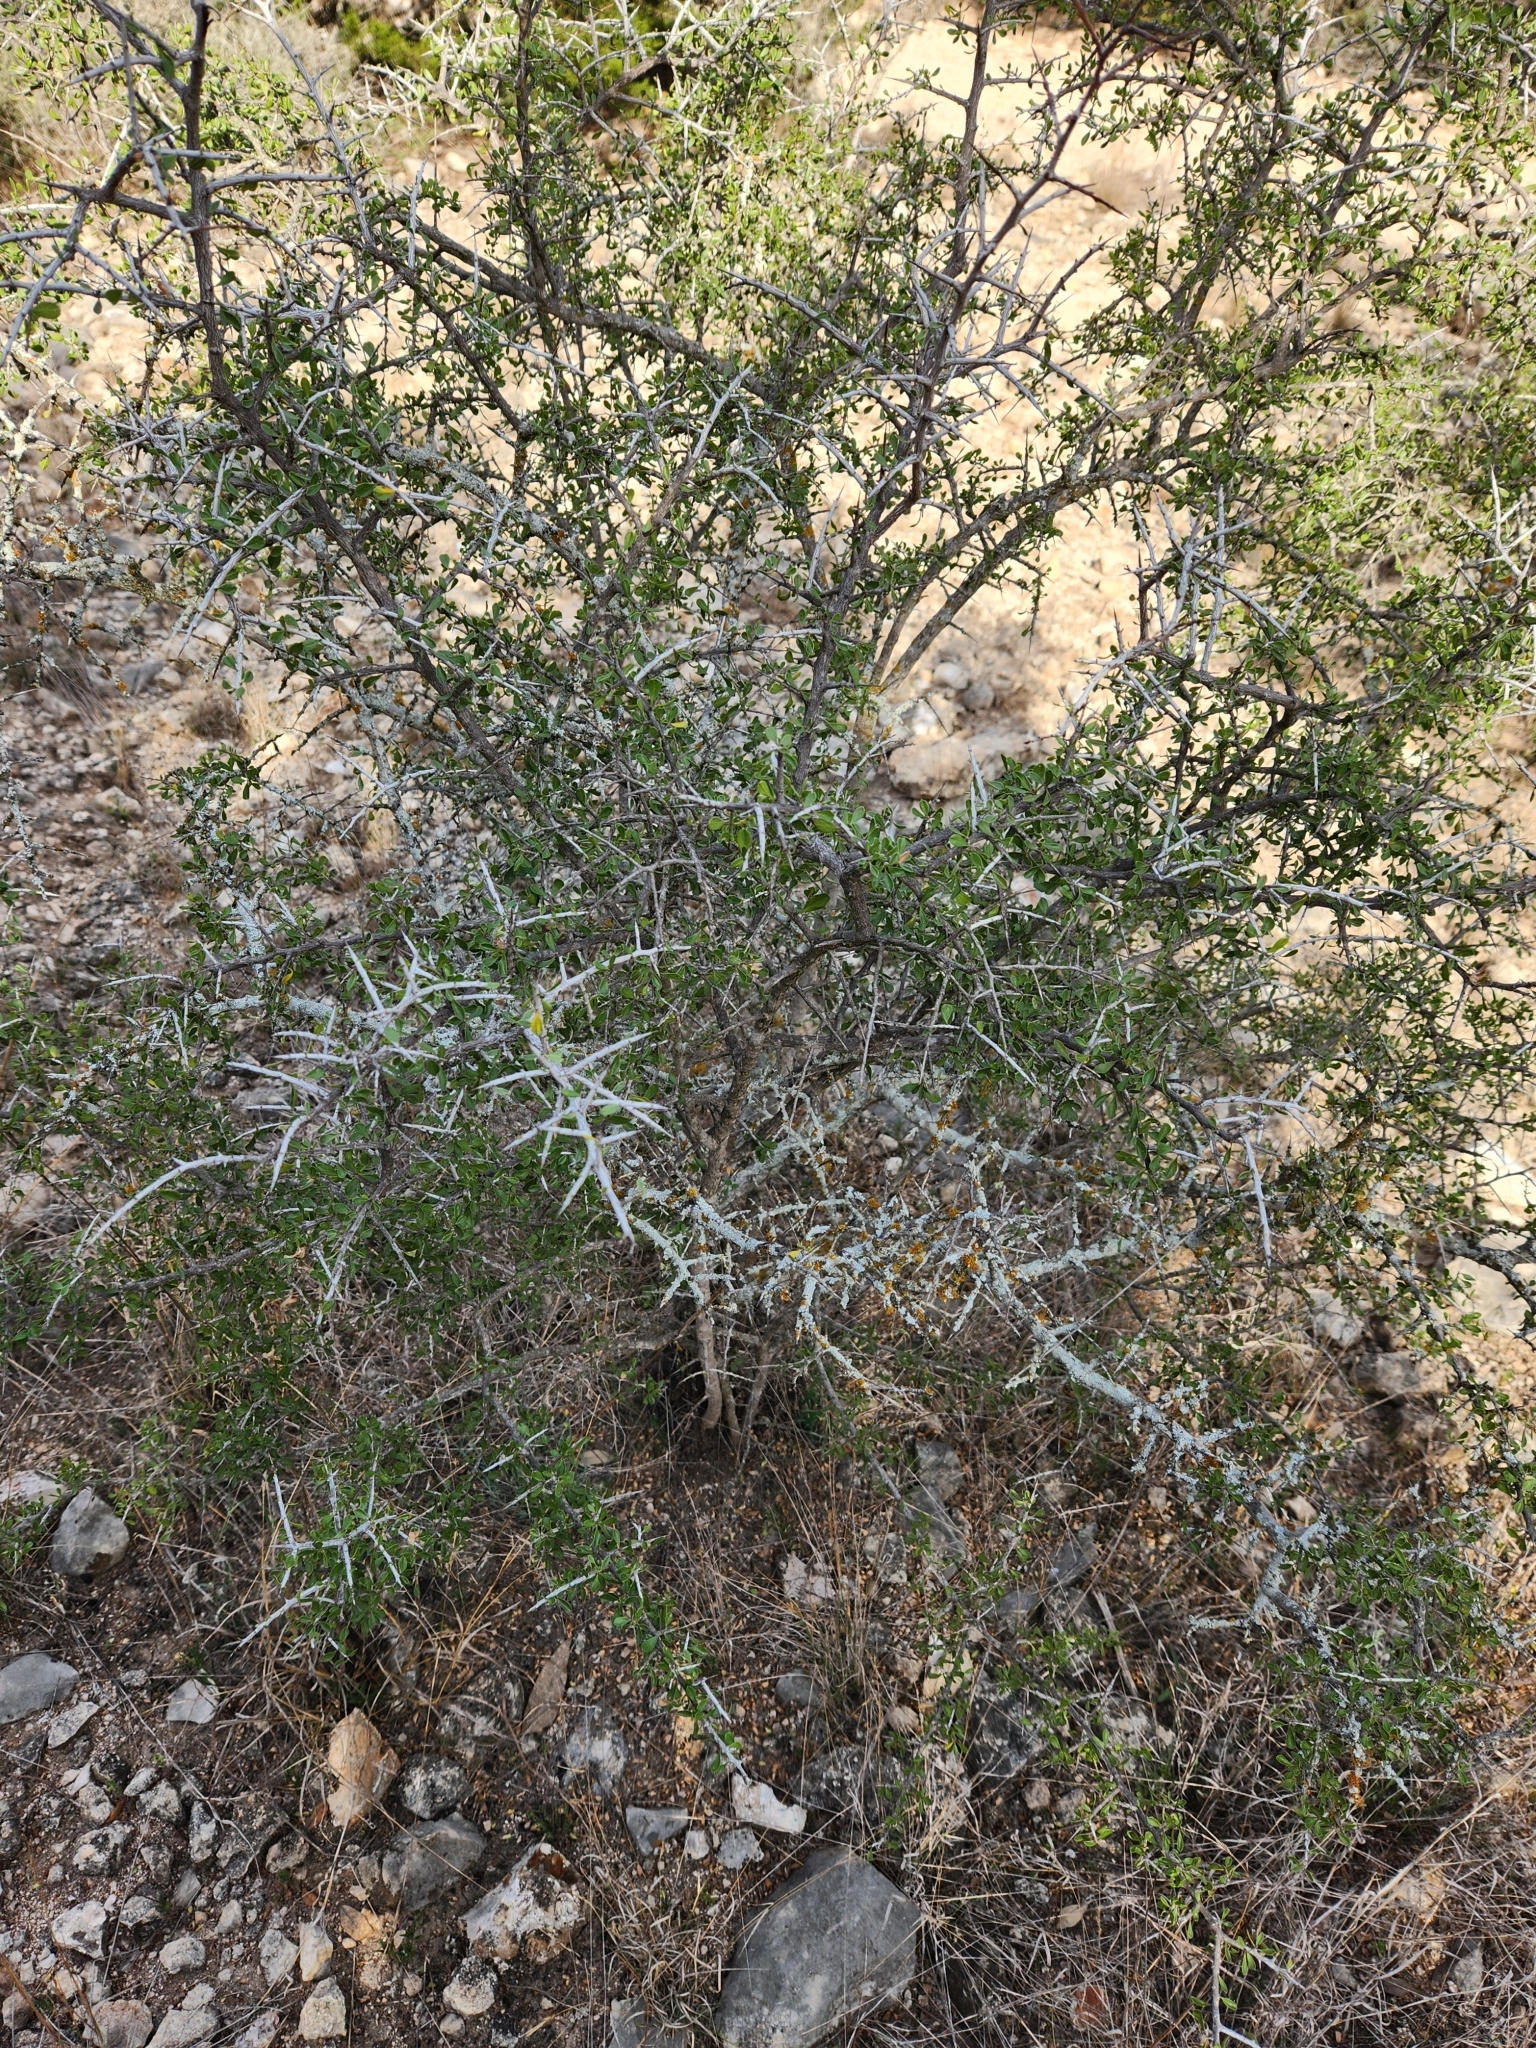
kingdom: Plantae
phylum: Tracheophyta
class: Magnoliopsida
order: Rosales
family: Rhamnaceae
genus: Condalia
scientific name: Condalia viridis
